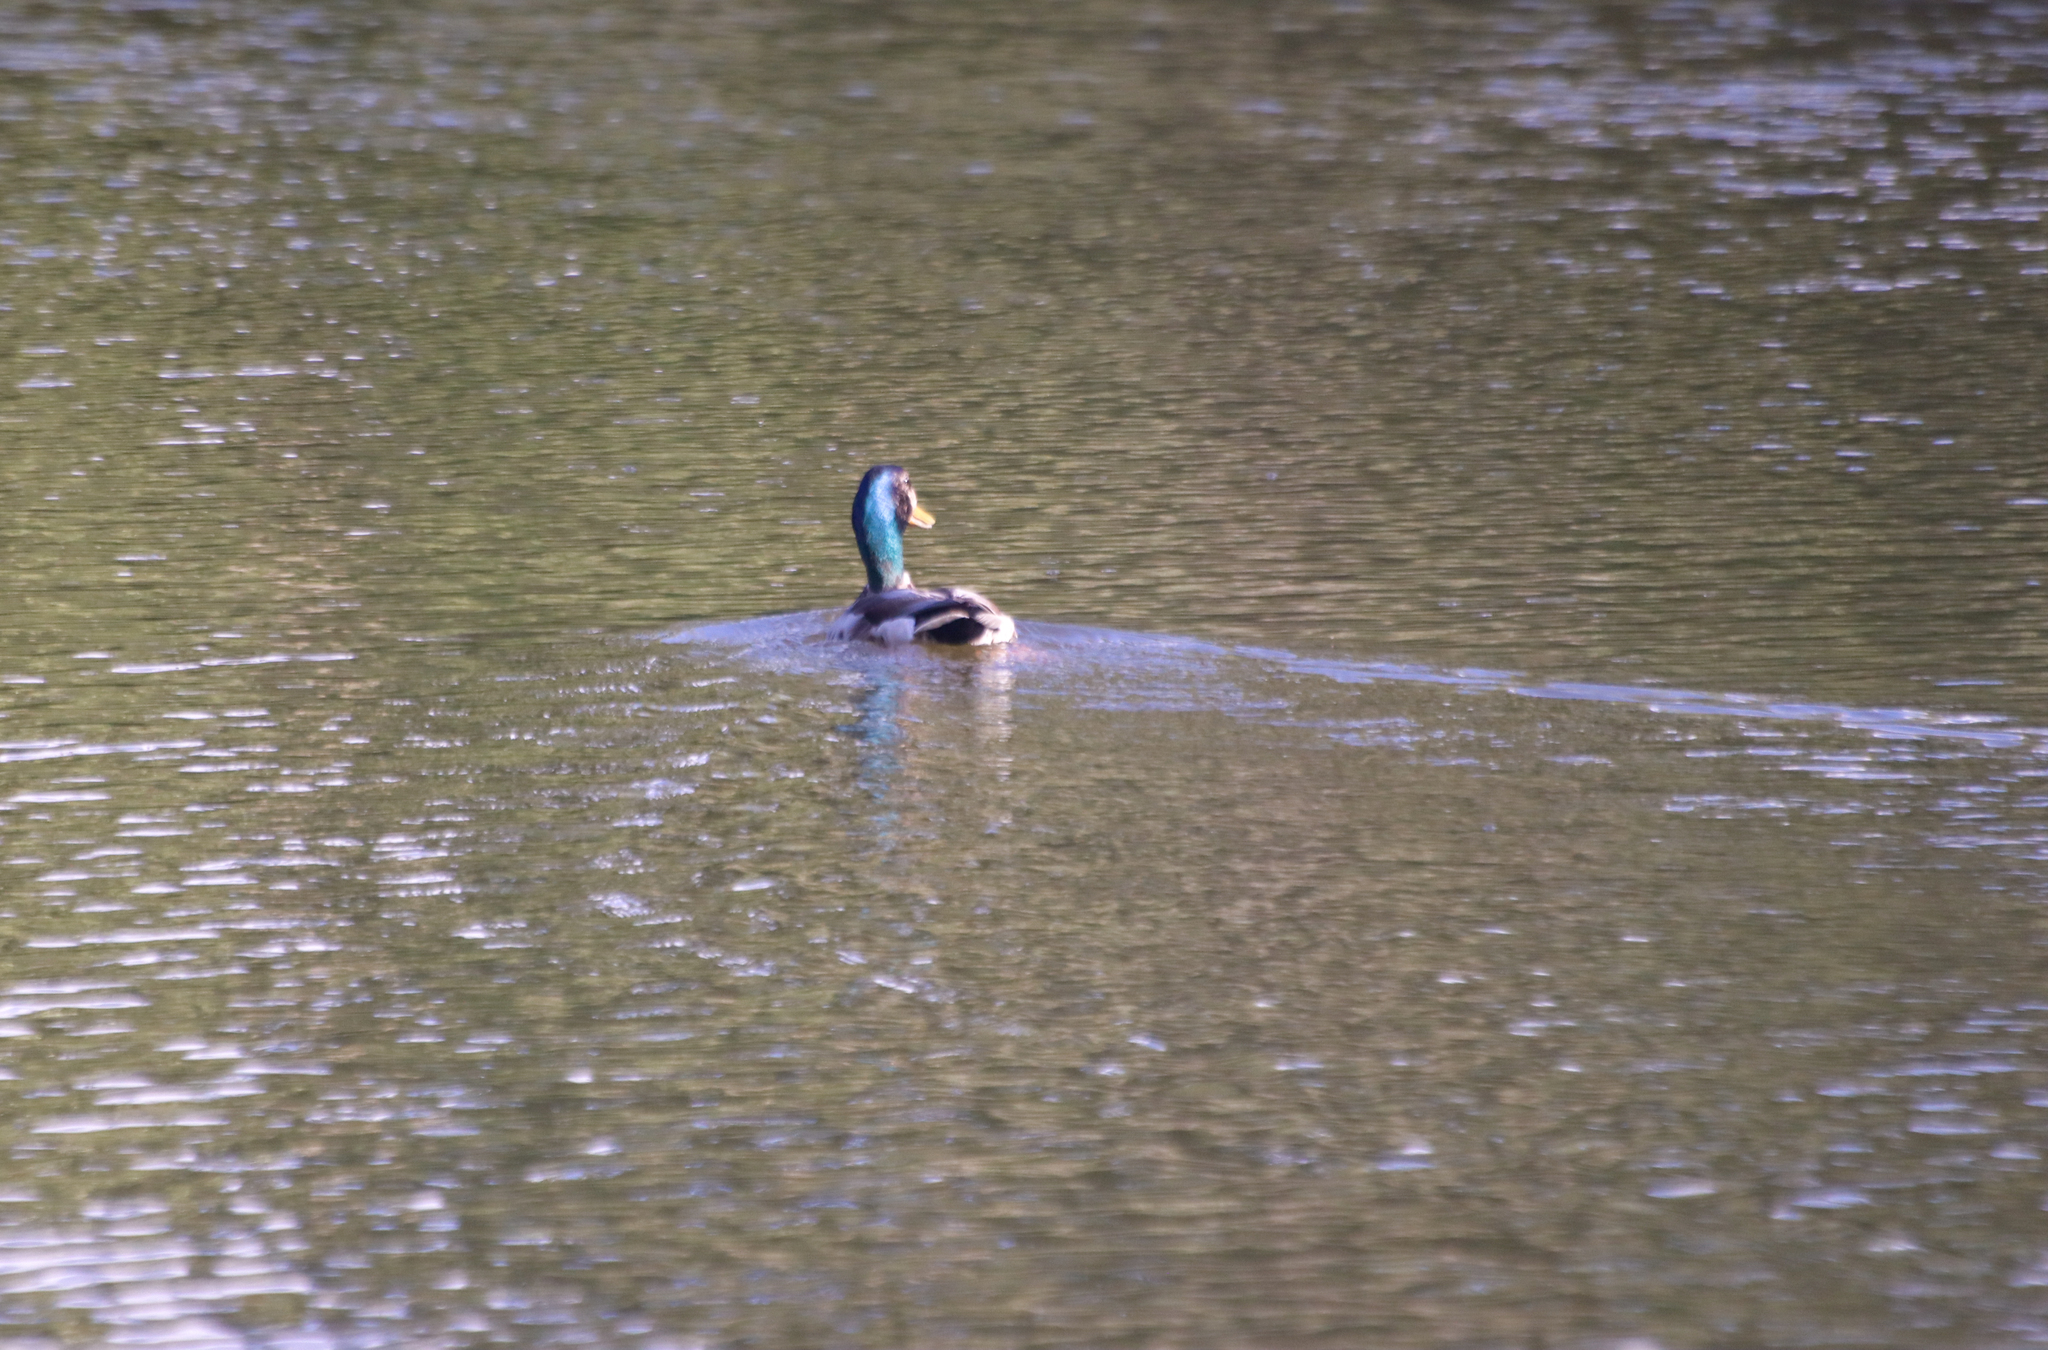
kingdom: Animalia
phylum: Chordata
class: Aves
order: Anseriformes
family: Anatidae
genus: Anas
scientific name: Anas platyrhynchos
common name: Mallard
